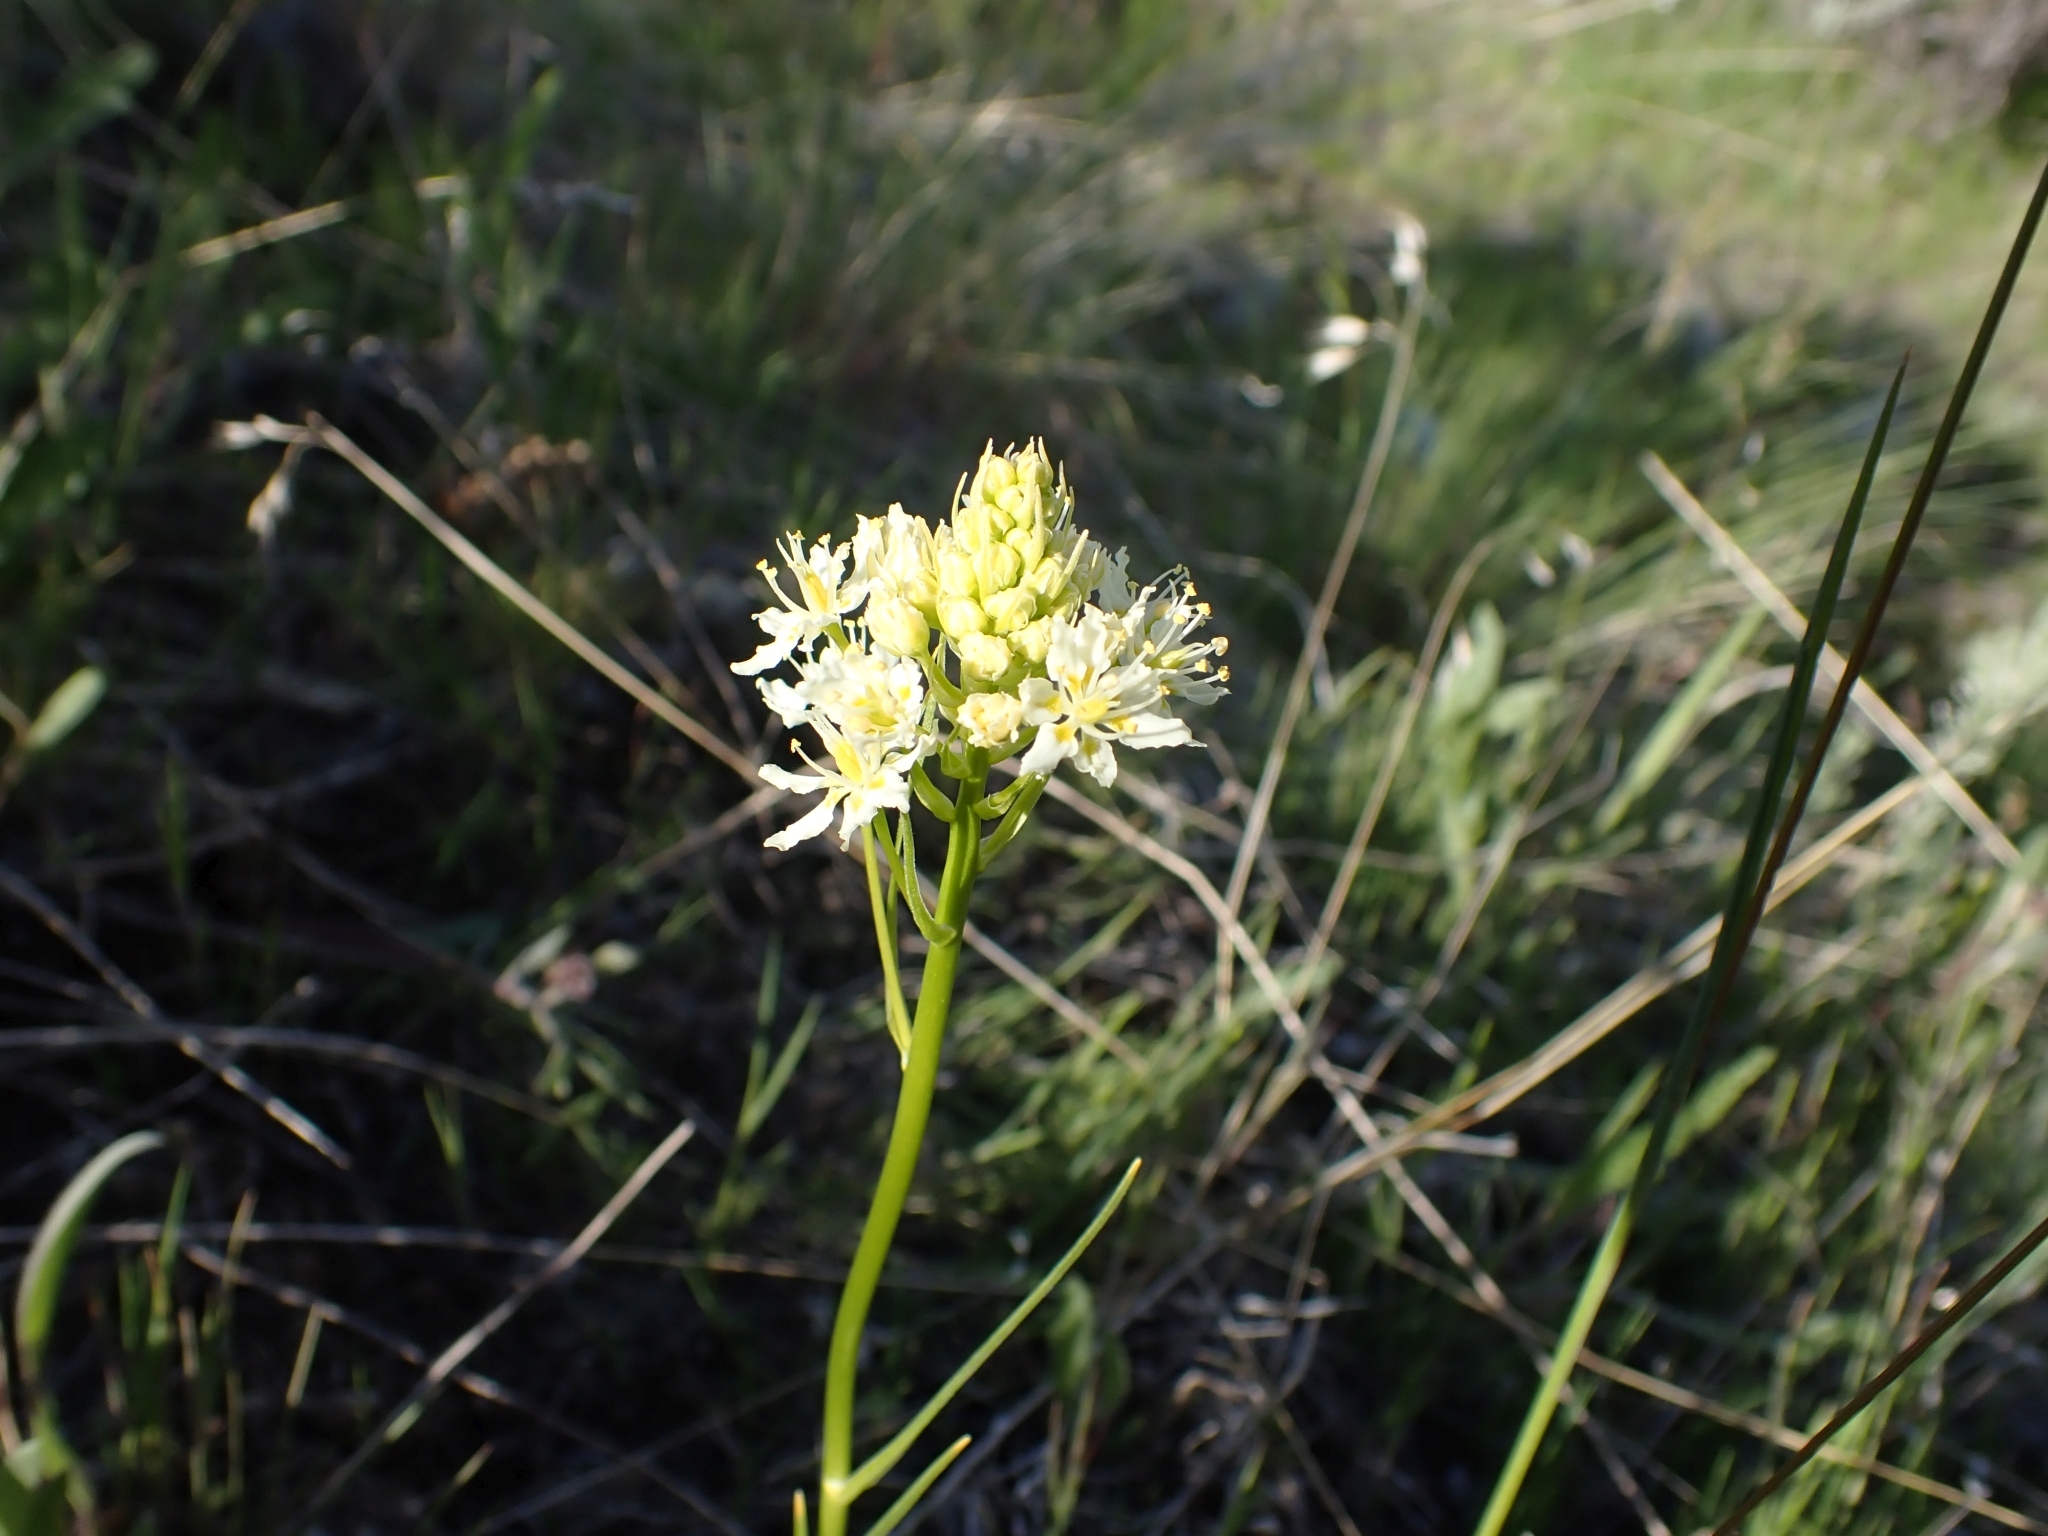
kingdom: Plantae
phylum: Tracheophyta
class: Liliopsida
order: Liliales
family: Melanthiaceae
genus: Toxicoscordion
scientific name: Toxicoscordion venenosum
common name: Meadow death camas
